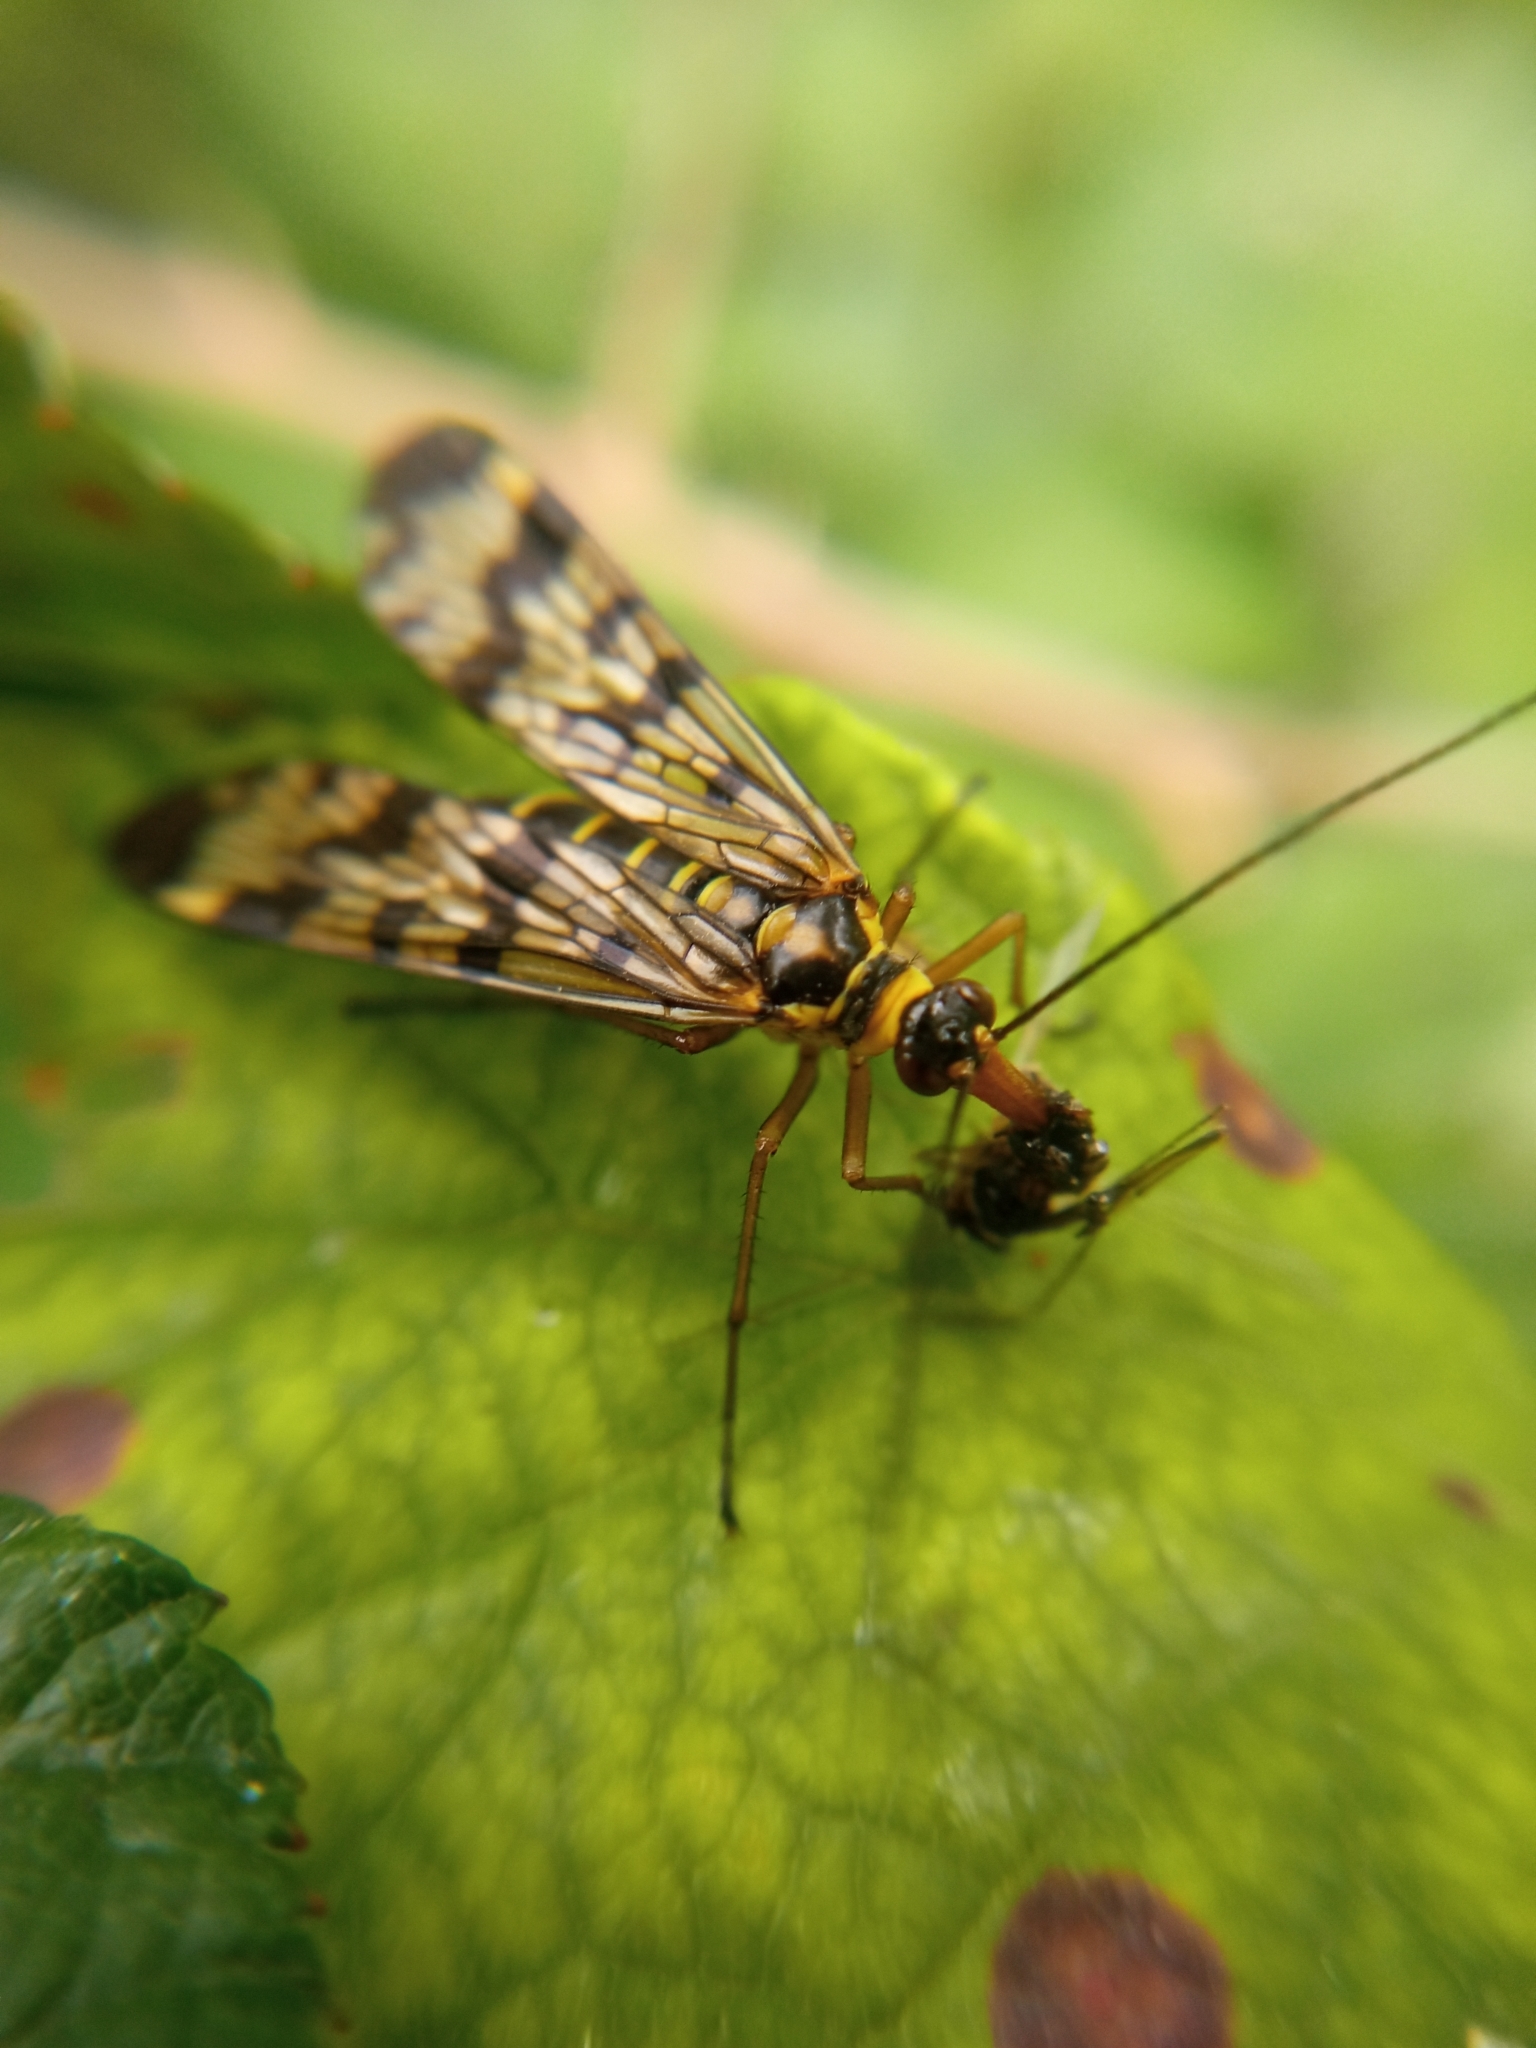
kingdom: Animalia
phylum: Arthropoda
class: Insecta
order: Mecoptera
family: Panorpidae
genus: Panorpa
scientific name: Panorpa communis
